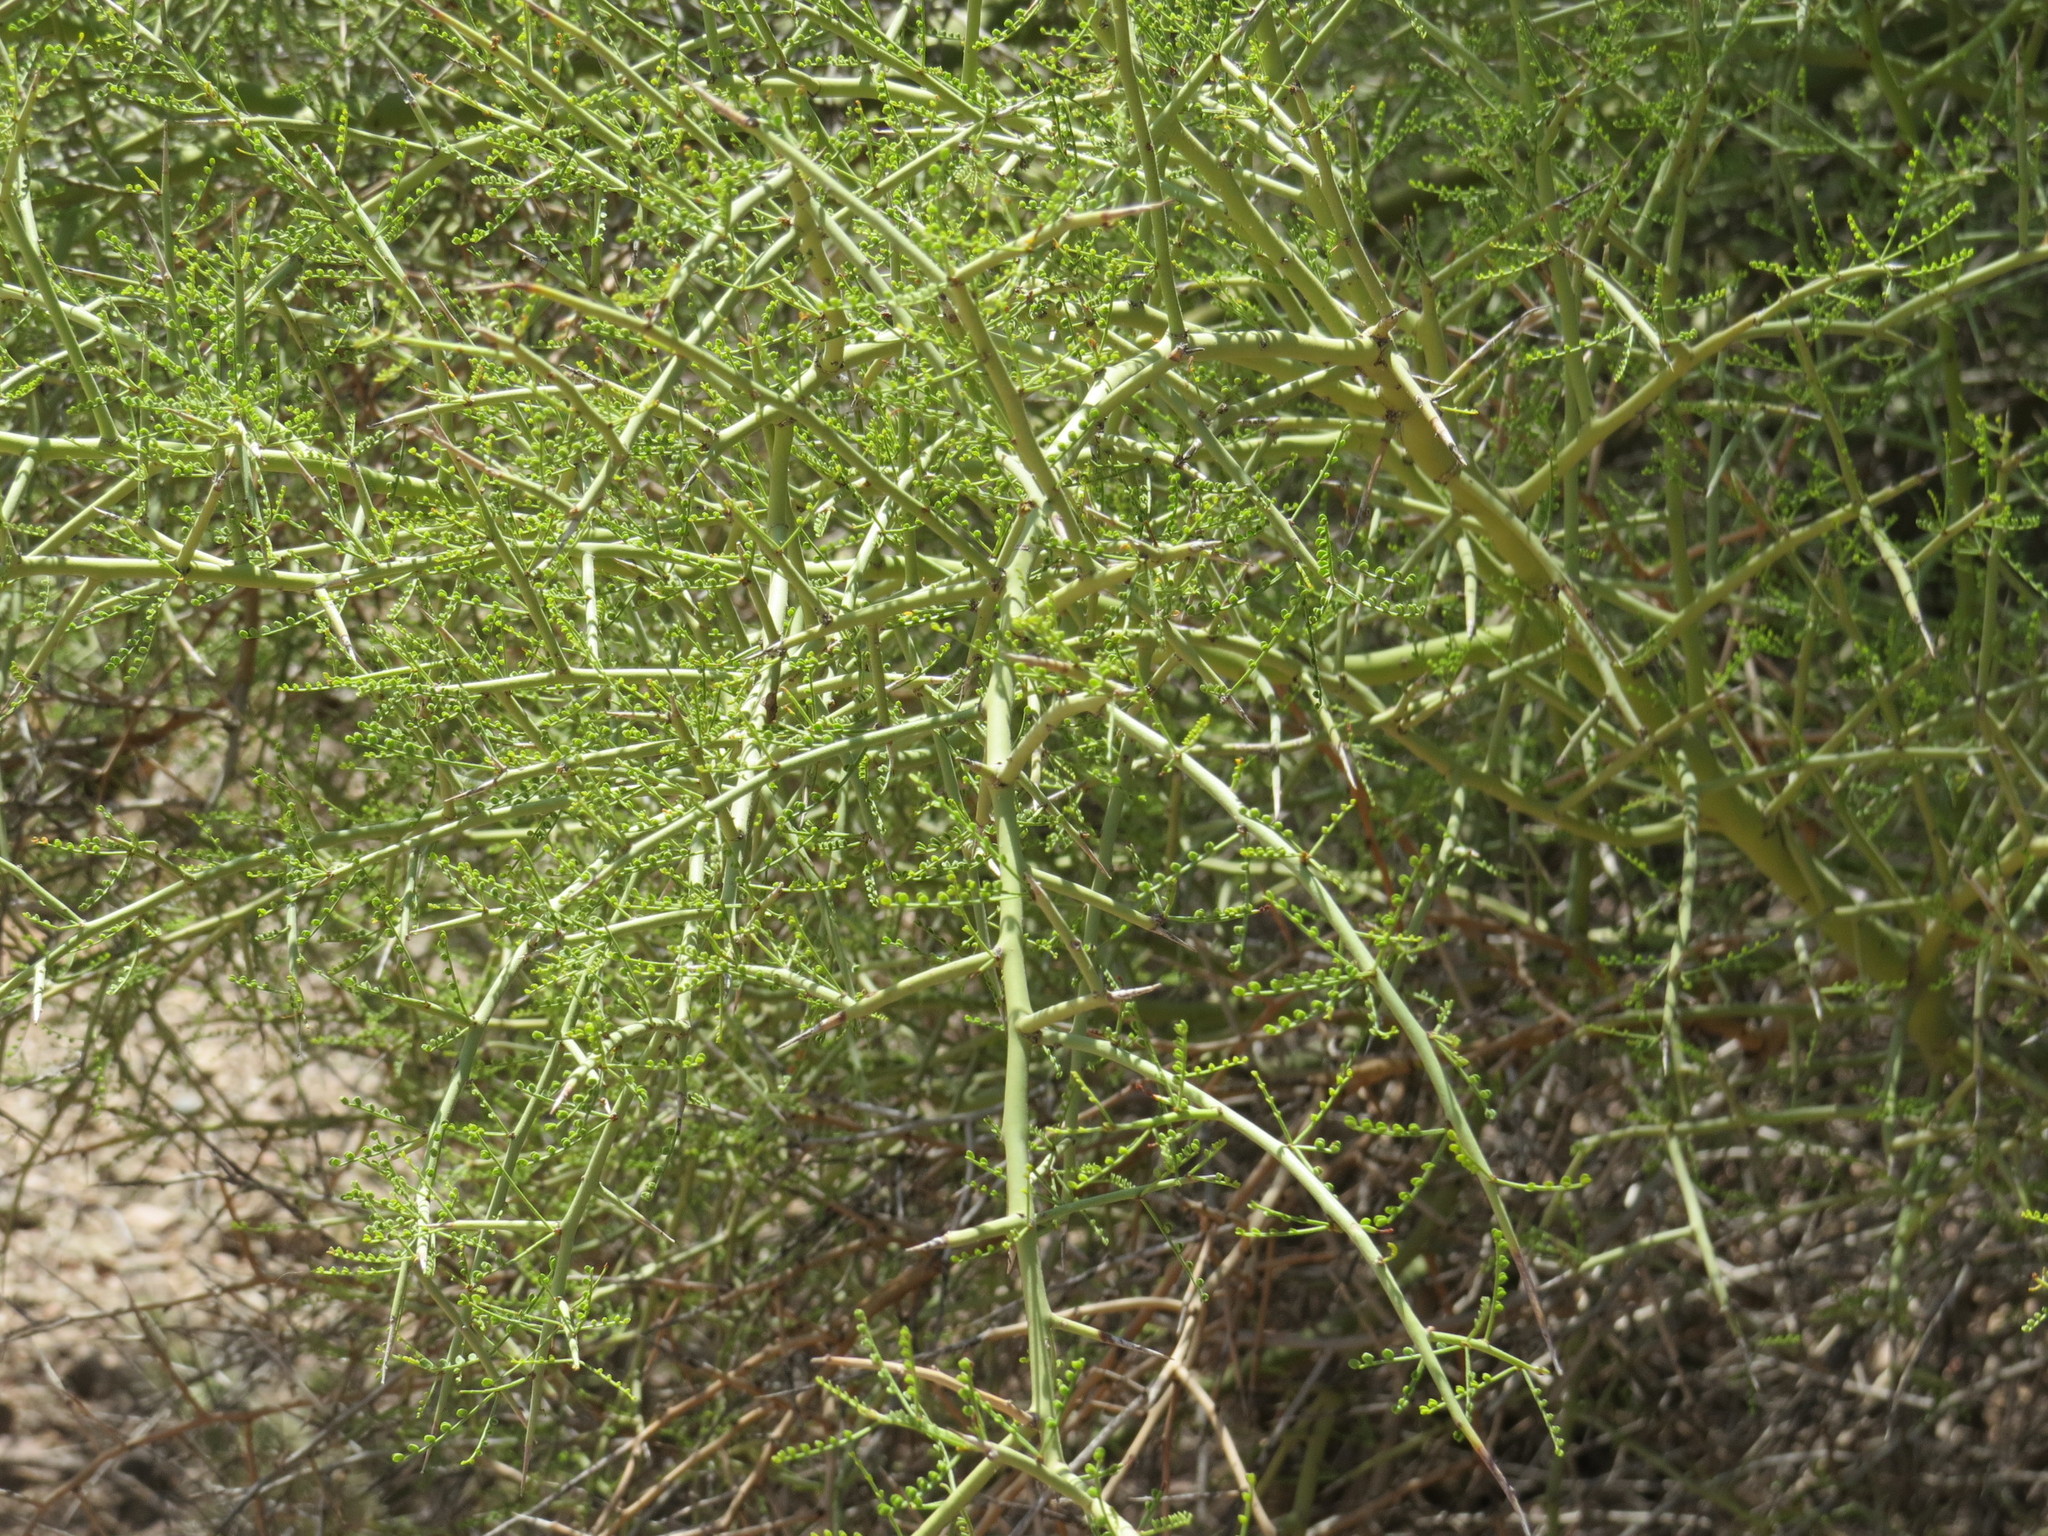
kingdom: Plantae
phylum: Tracheophyta
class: Magnoliopsida
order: Fabales
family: Fabaceae
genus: Parkinsonia
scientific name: Parkinsonia microphylla
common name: Yellow paloverde
